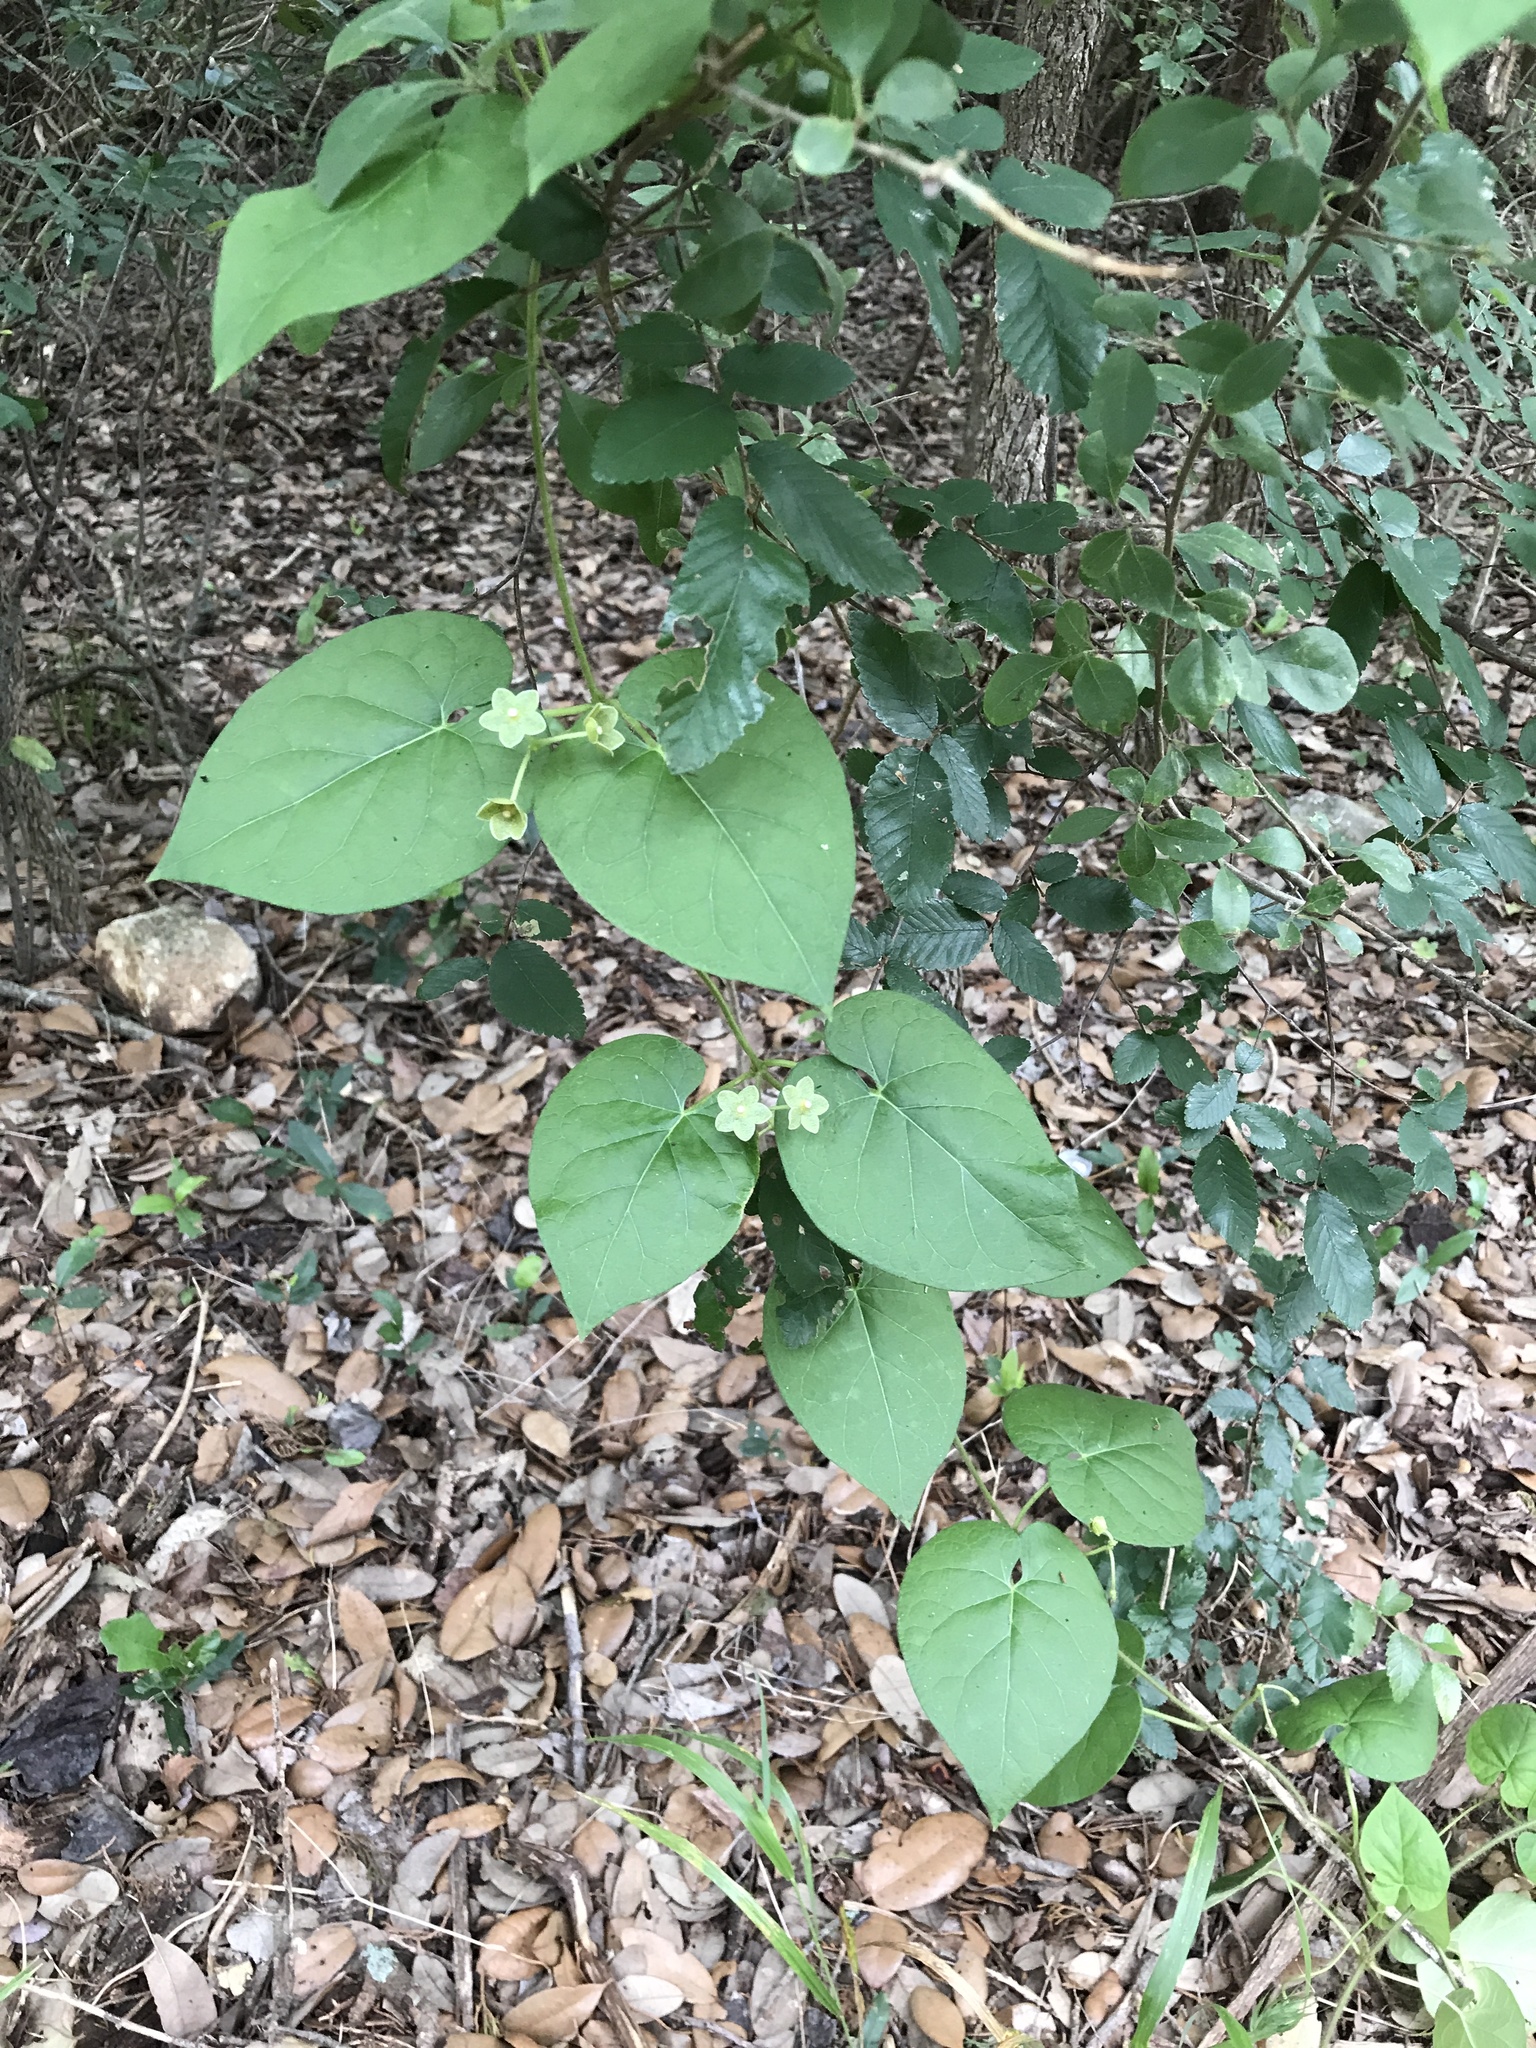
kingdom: Plantae
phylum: Tracheophyta
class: Magnoliopsida
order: Gentianales
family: Apocynaceae
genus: Dictyanthus
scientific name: Dictyanthus reticulatus
